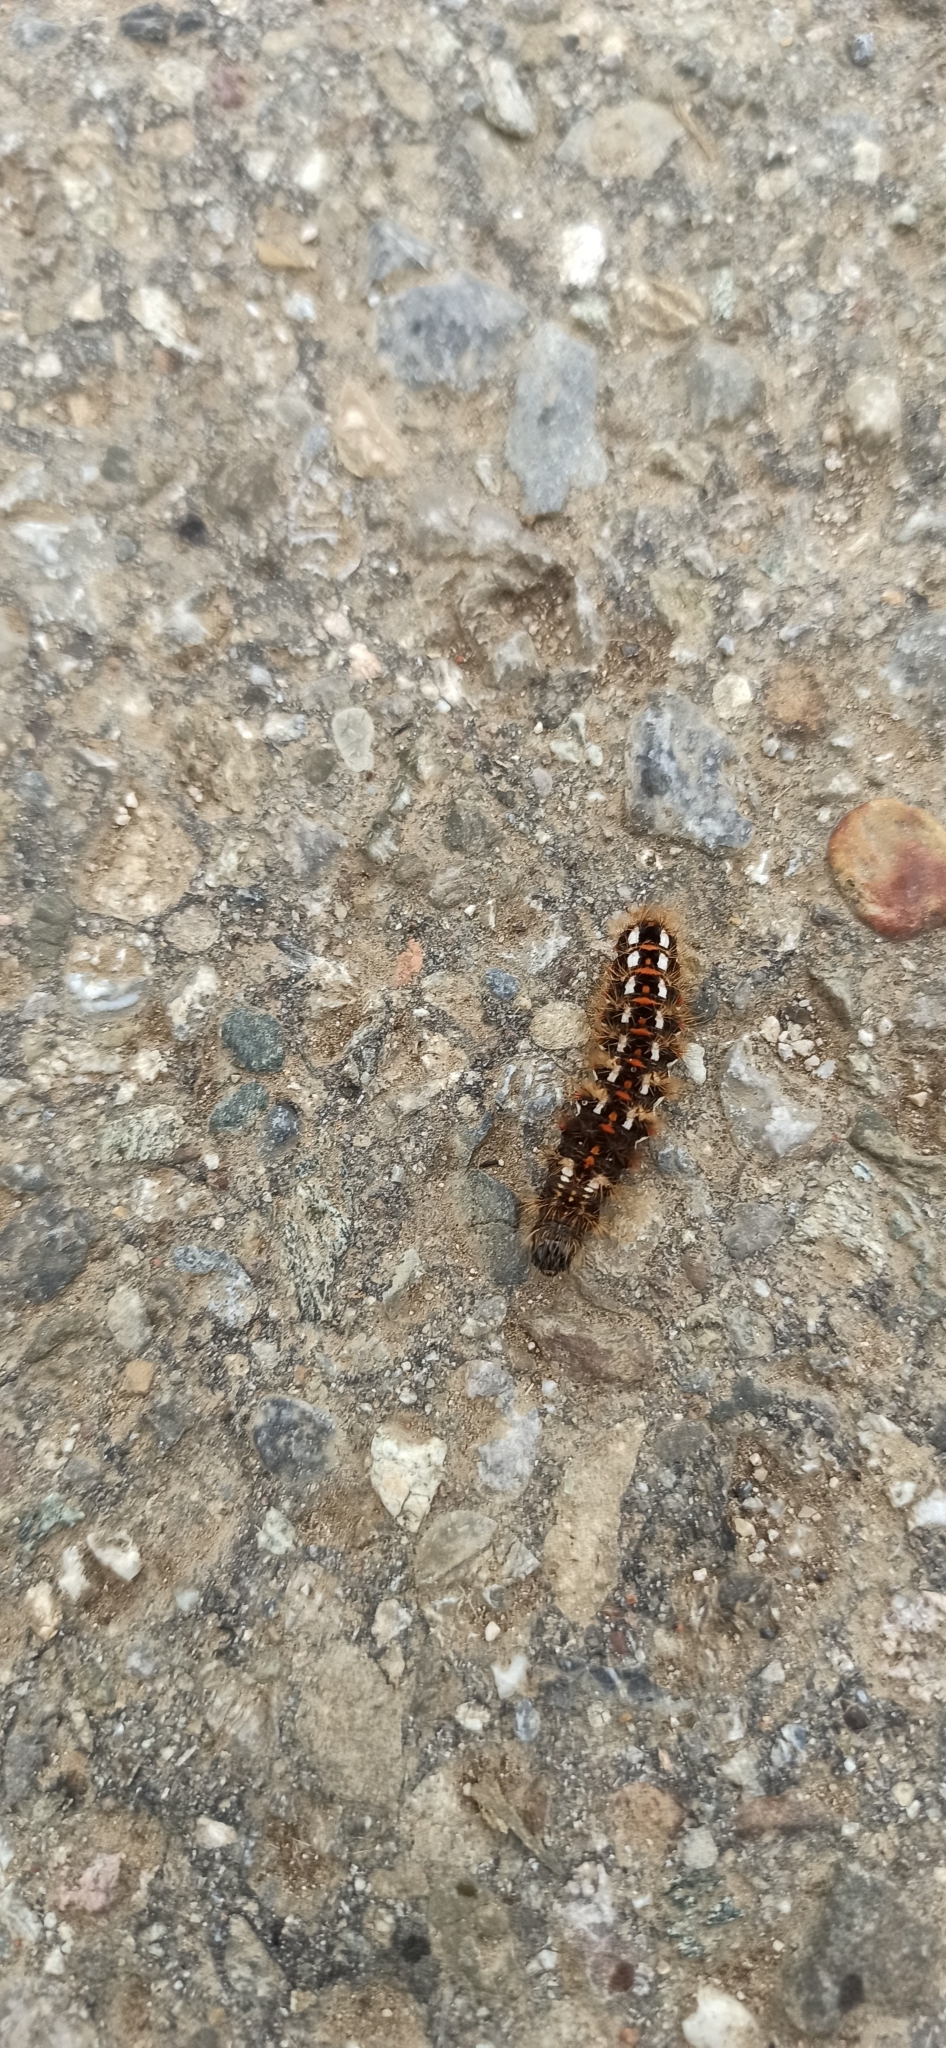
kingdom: Animalia
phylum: Arthropoda
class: Insecta
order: Lepidoptera
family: Noctuidae
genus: Acronicta
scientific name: Acronicta rumicis
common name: Knot grass
